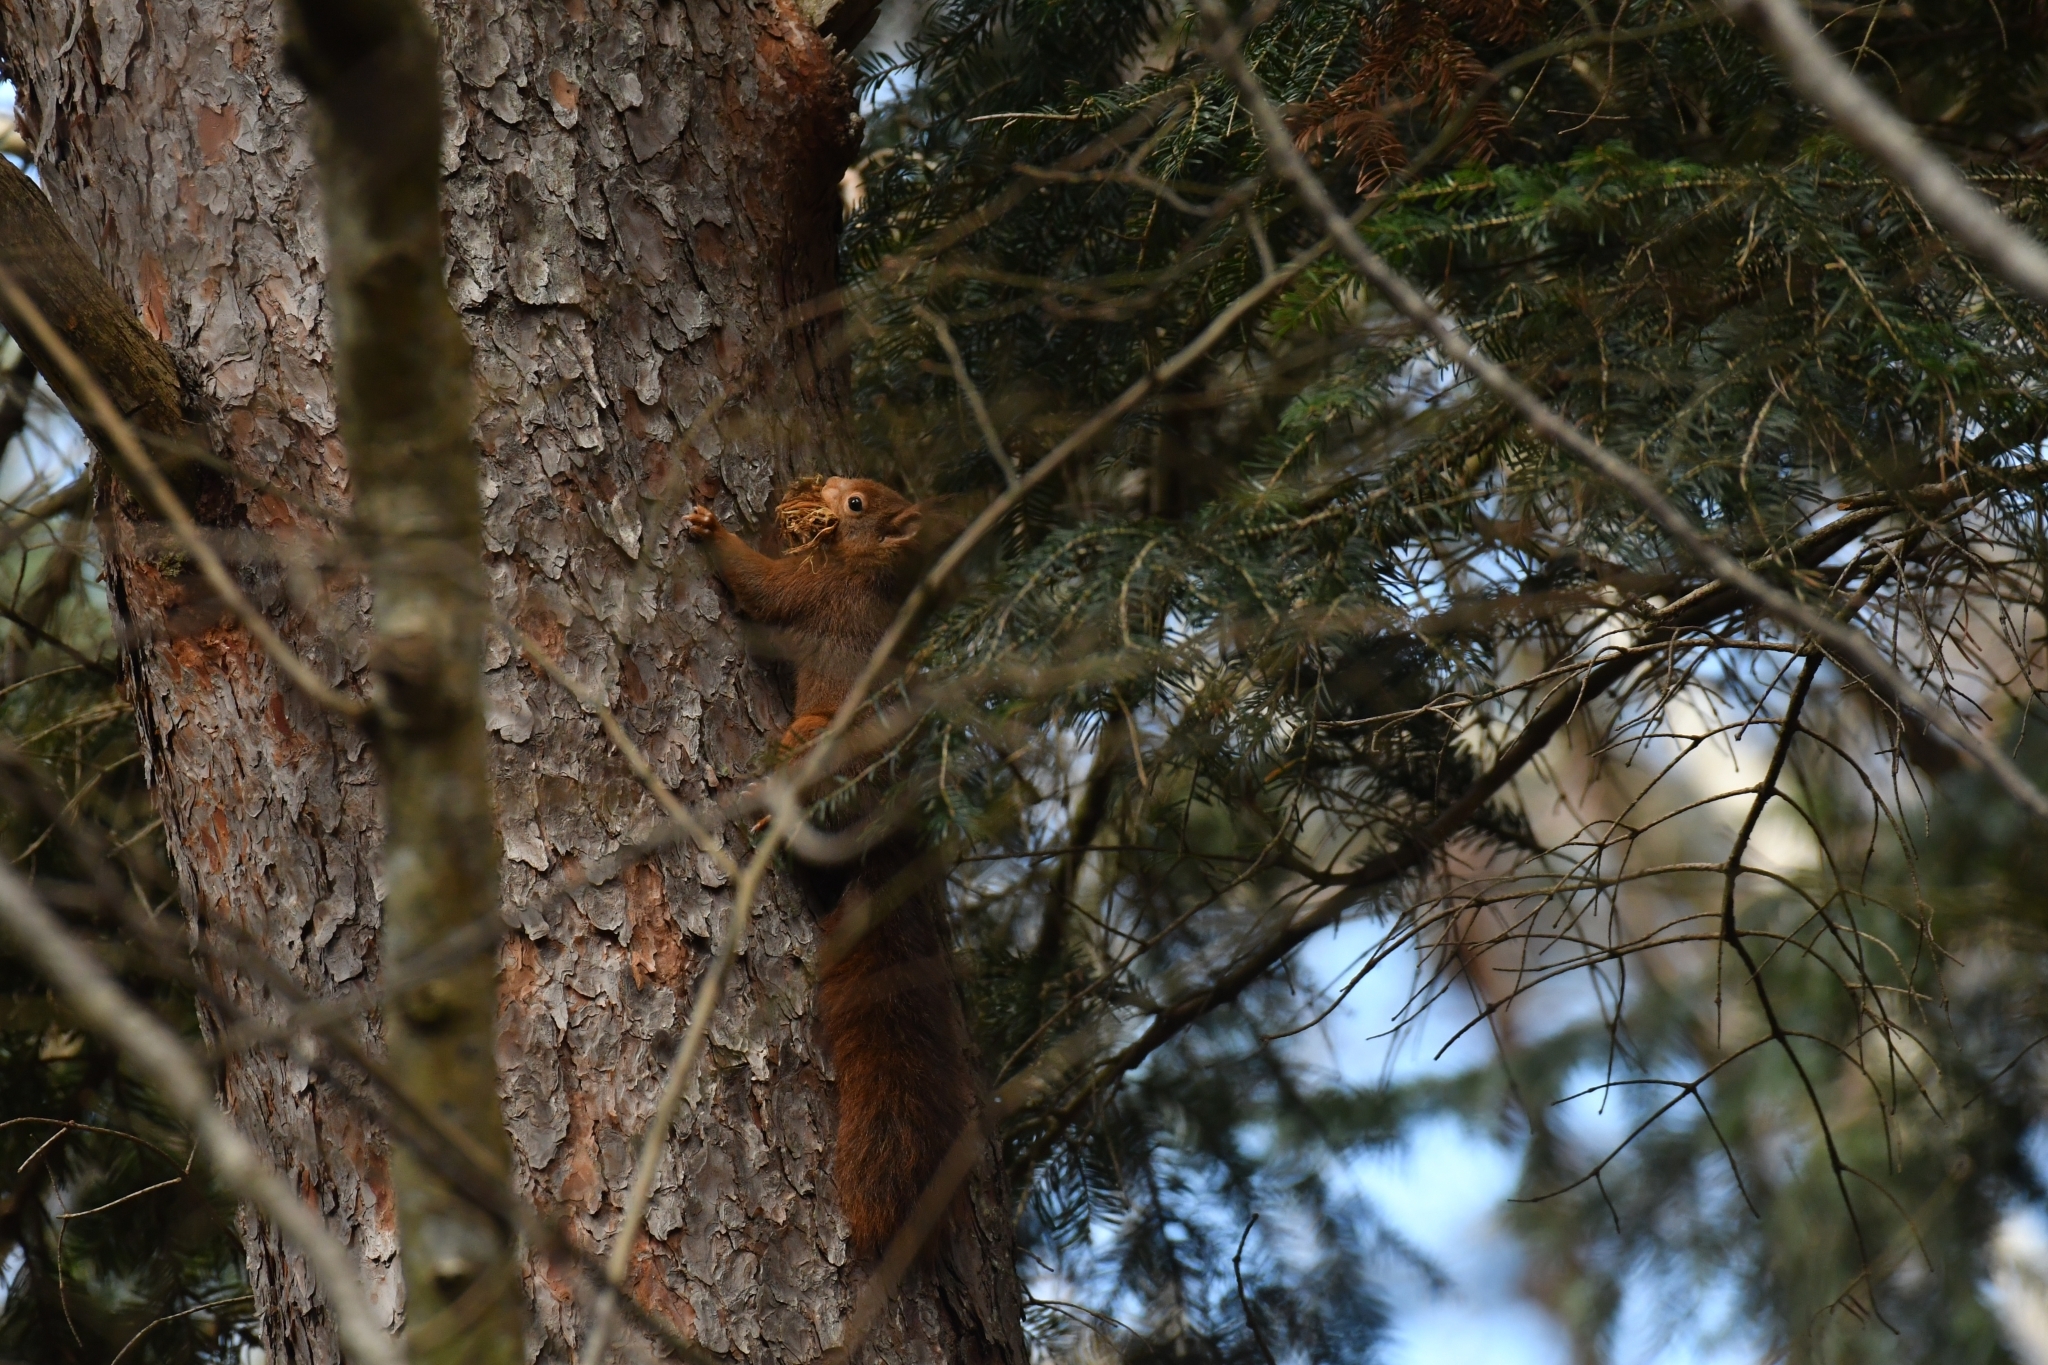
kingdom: Animalia
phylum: Chordata
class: Mammalia
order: Rodentia
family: Sciuridae
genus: Sciurus
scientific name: Sciurus vulgaris
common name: Eurasian red squirrel
